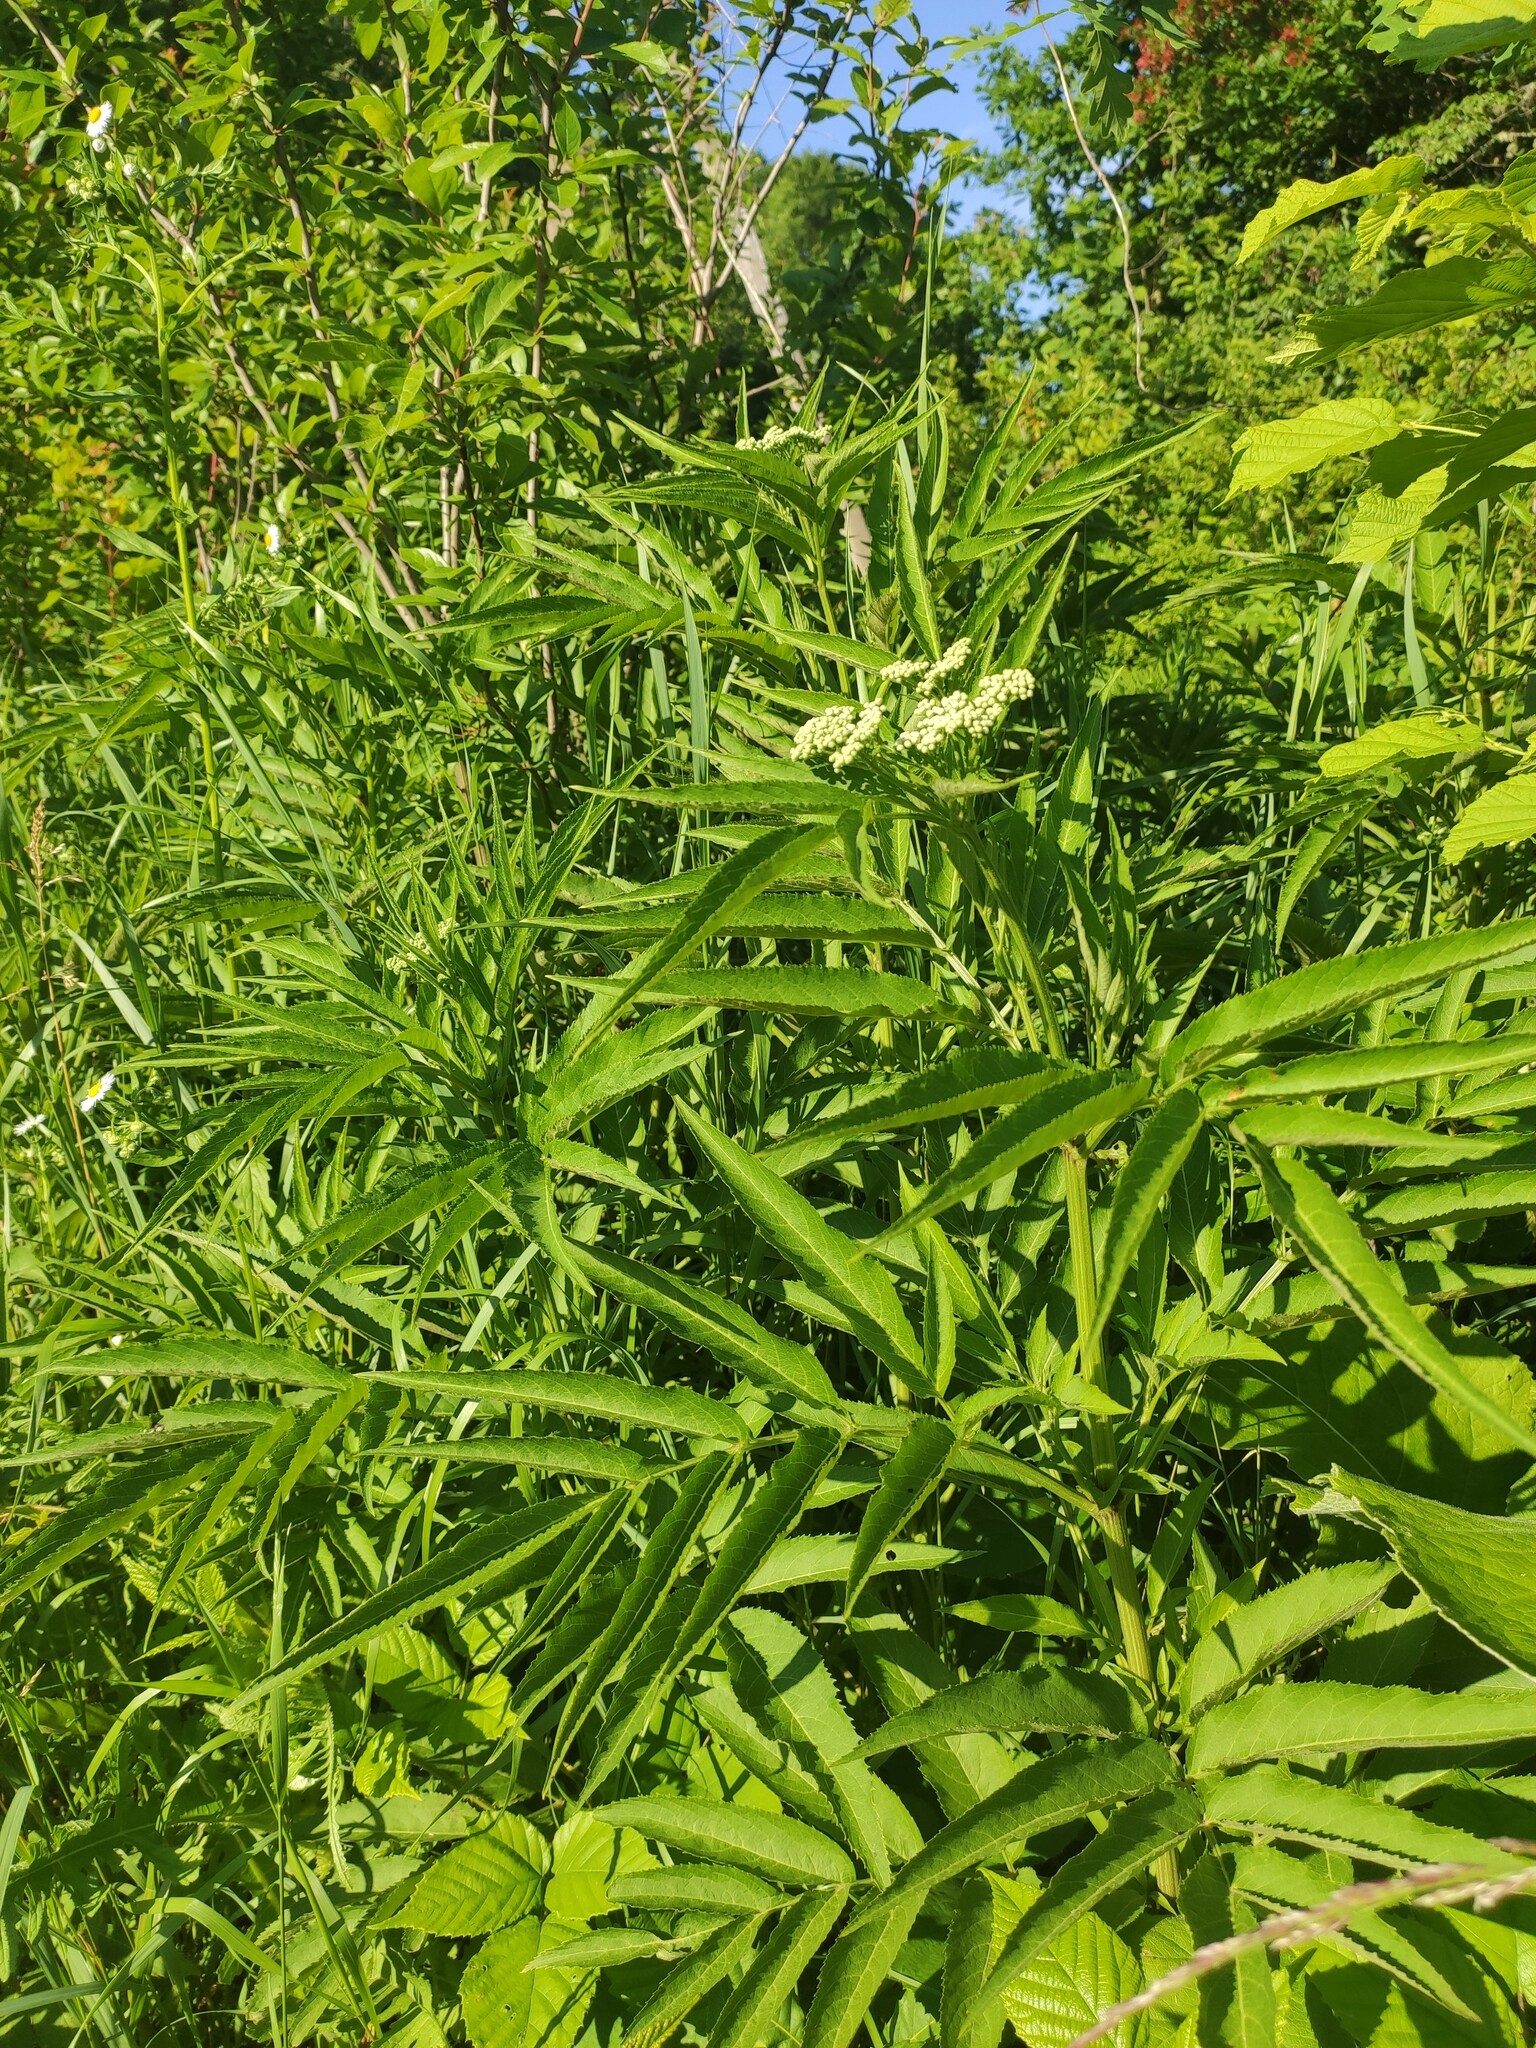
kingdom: Plantae
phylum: Tracheophyta
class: Magnoliopsida
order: Dipsacales
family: Viburnaceae
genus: Sambucus
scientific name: Sambucus ebulus
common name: Dwarf elder
